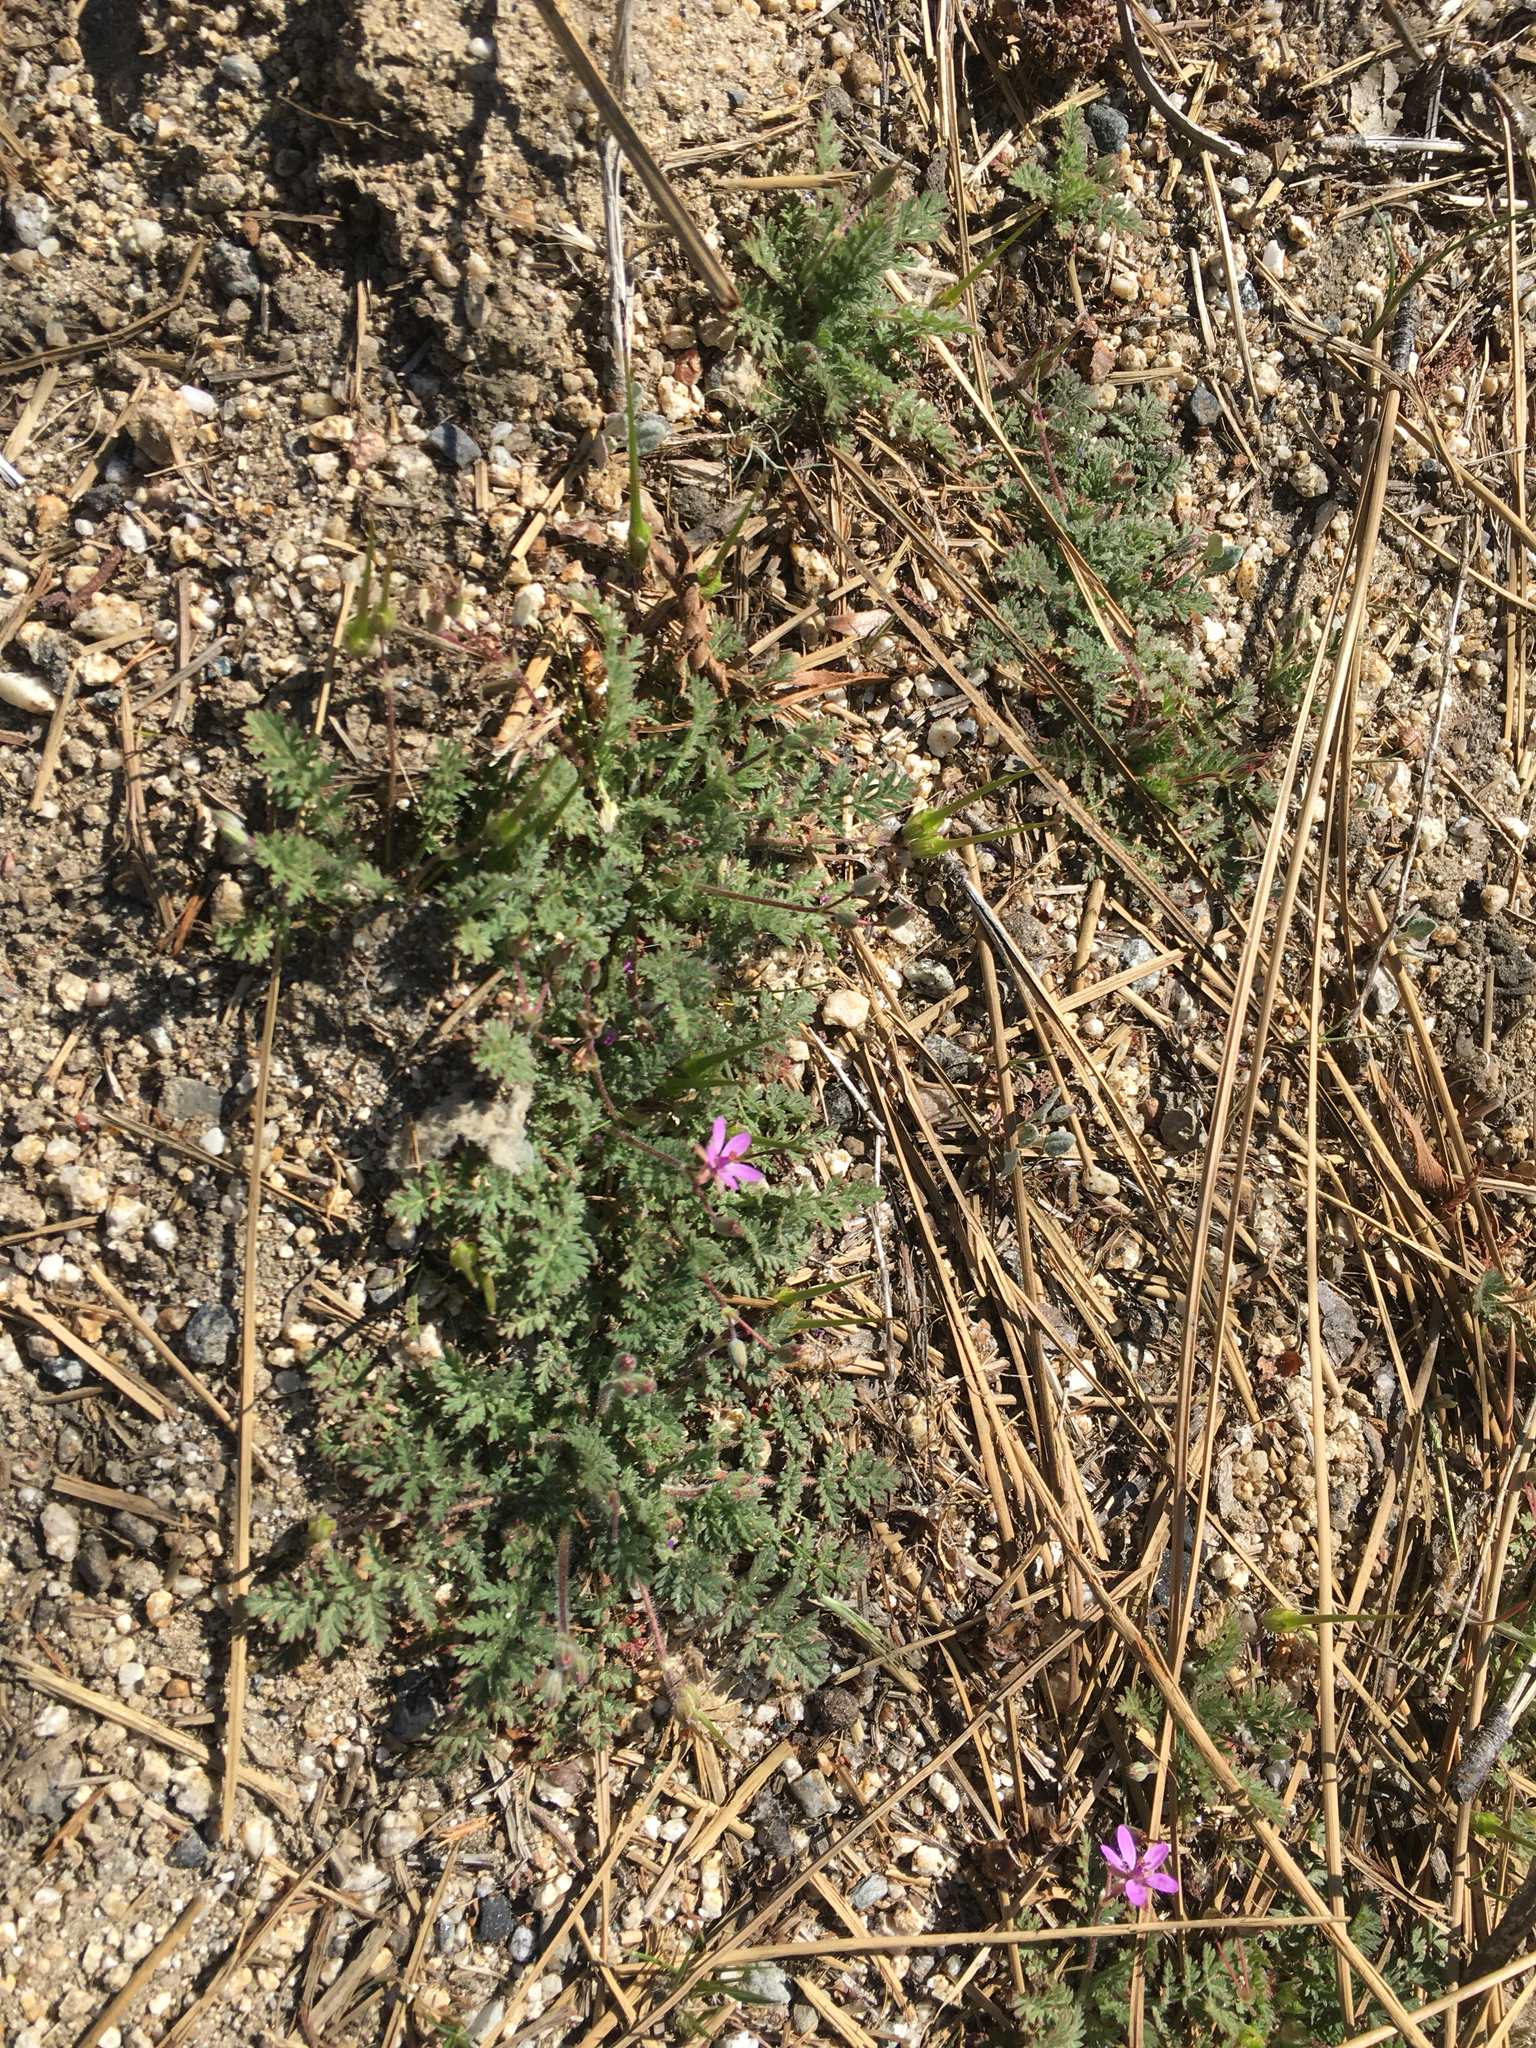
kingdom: Plantae
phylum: Tracheophyta
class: Magnoliopsida
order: Geraniales
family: Geraniaceae
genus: Erodium
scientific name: Erodium cicutarium
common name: Common stork's-bill
